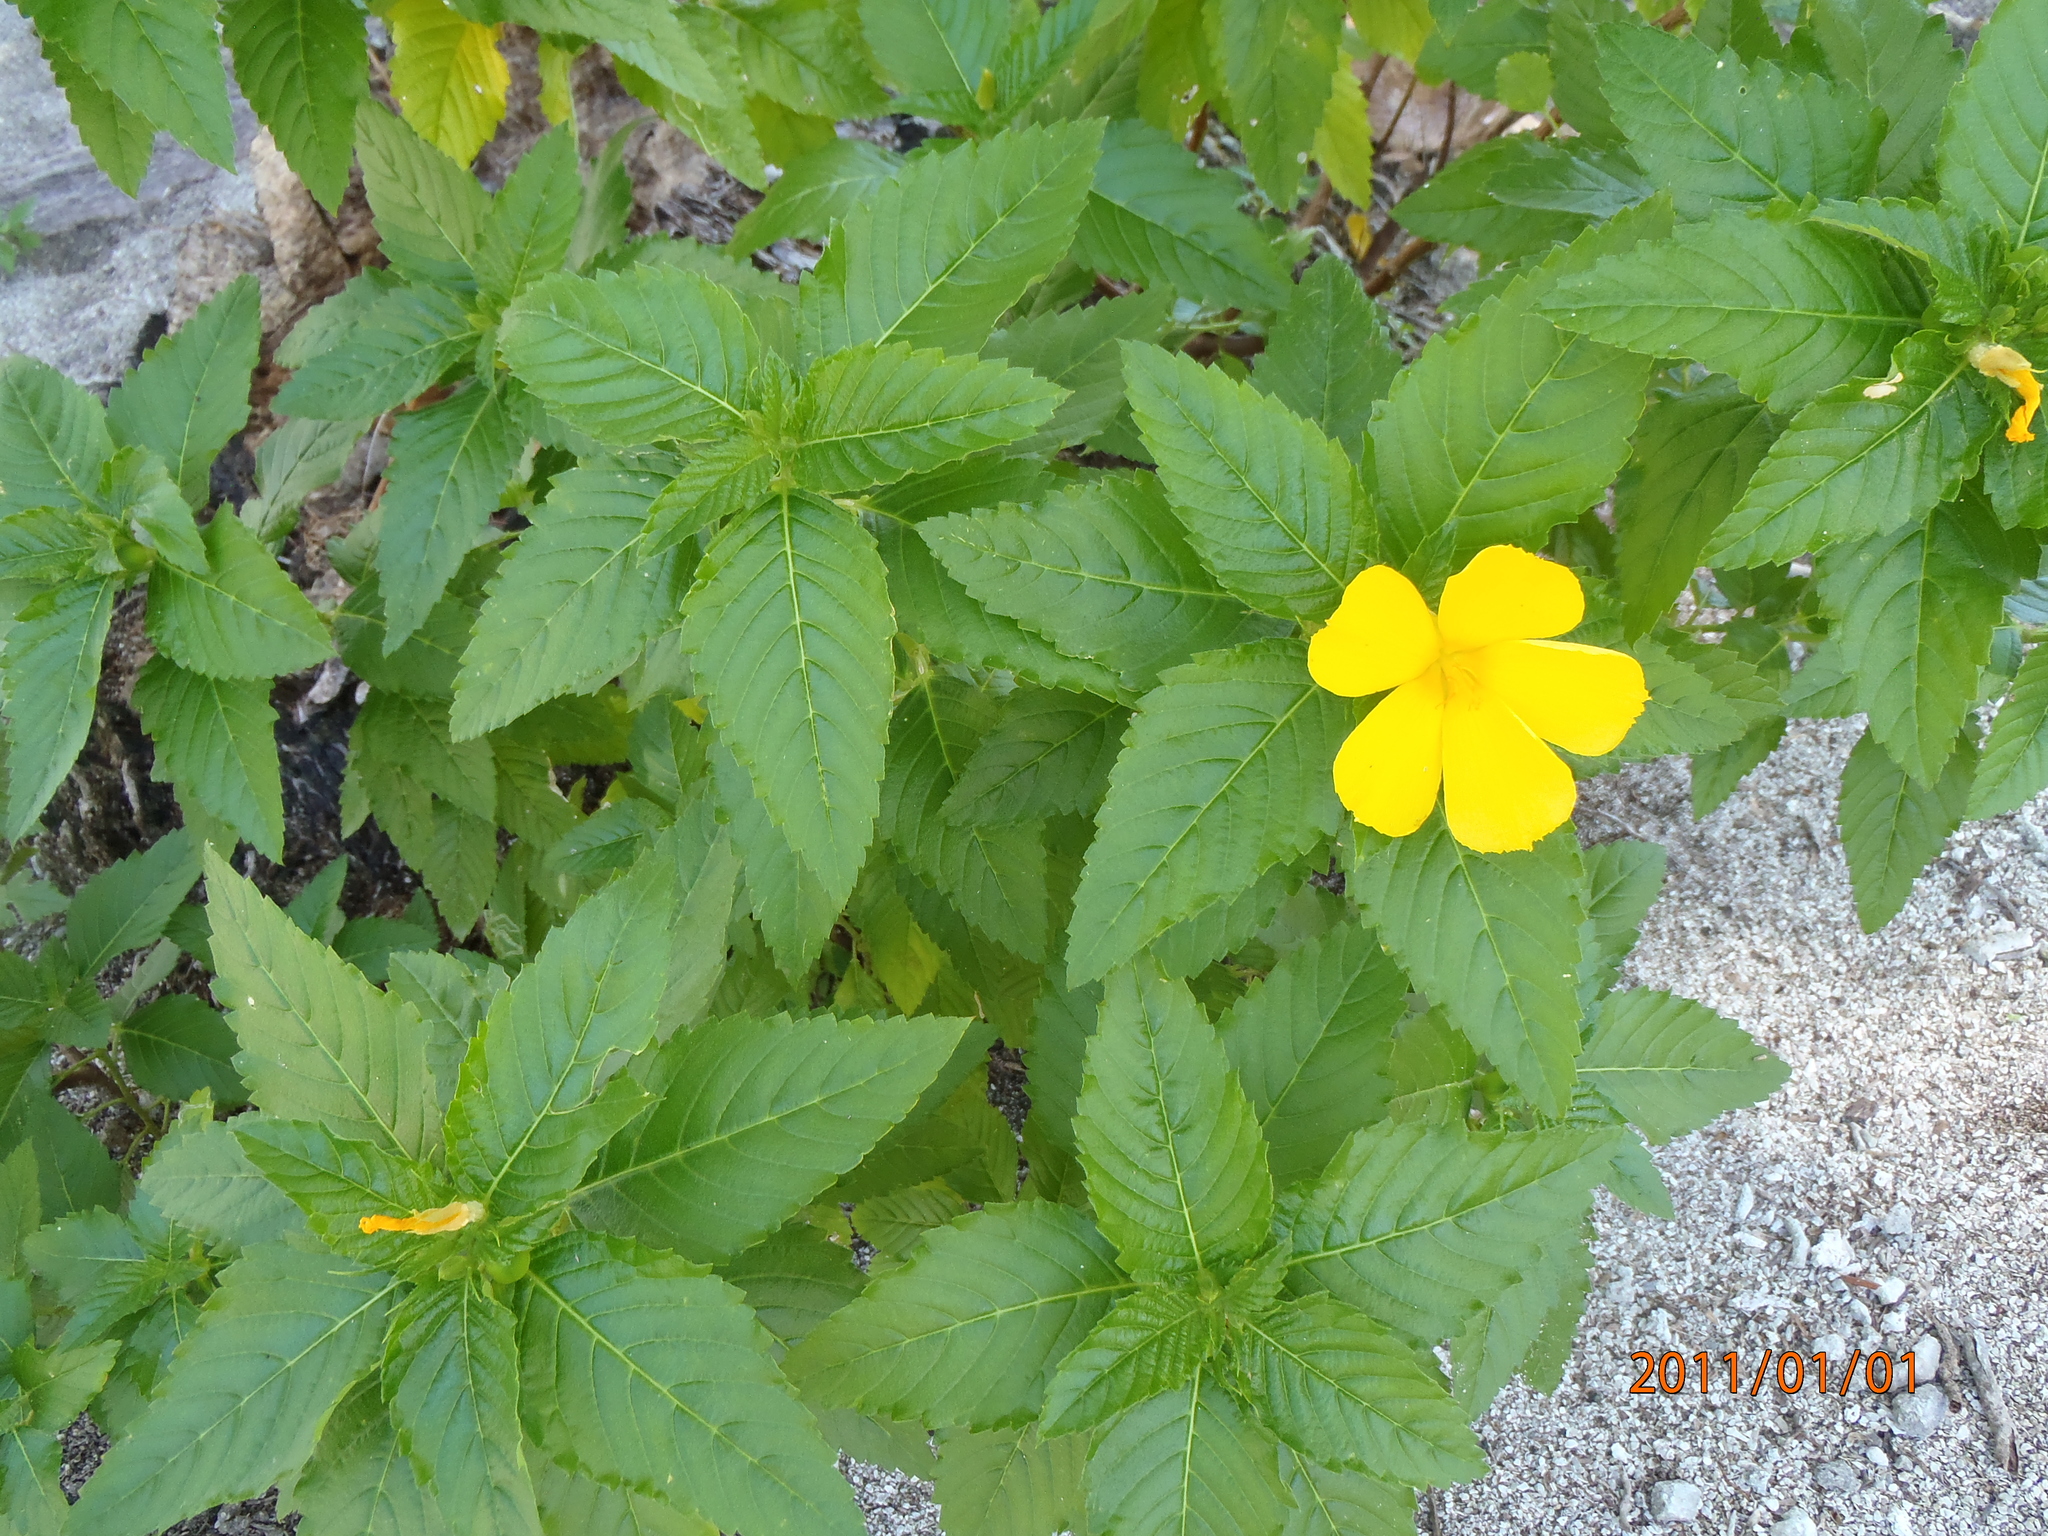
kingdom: Plantae
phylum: Tracheophyta
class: Magnoliopsida
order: Malpighiales
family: Turneraceae
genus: Turnera
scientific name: Turnera ulmifolia
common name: Ramgoat dashalong
